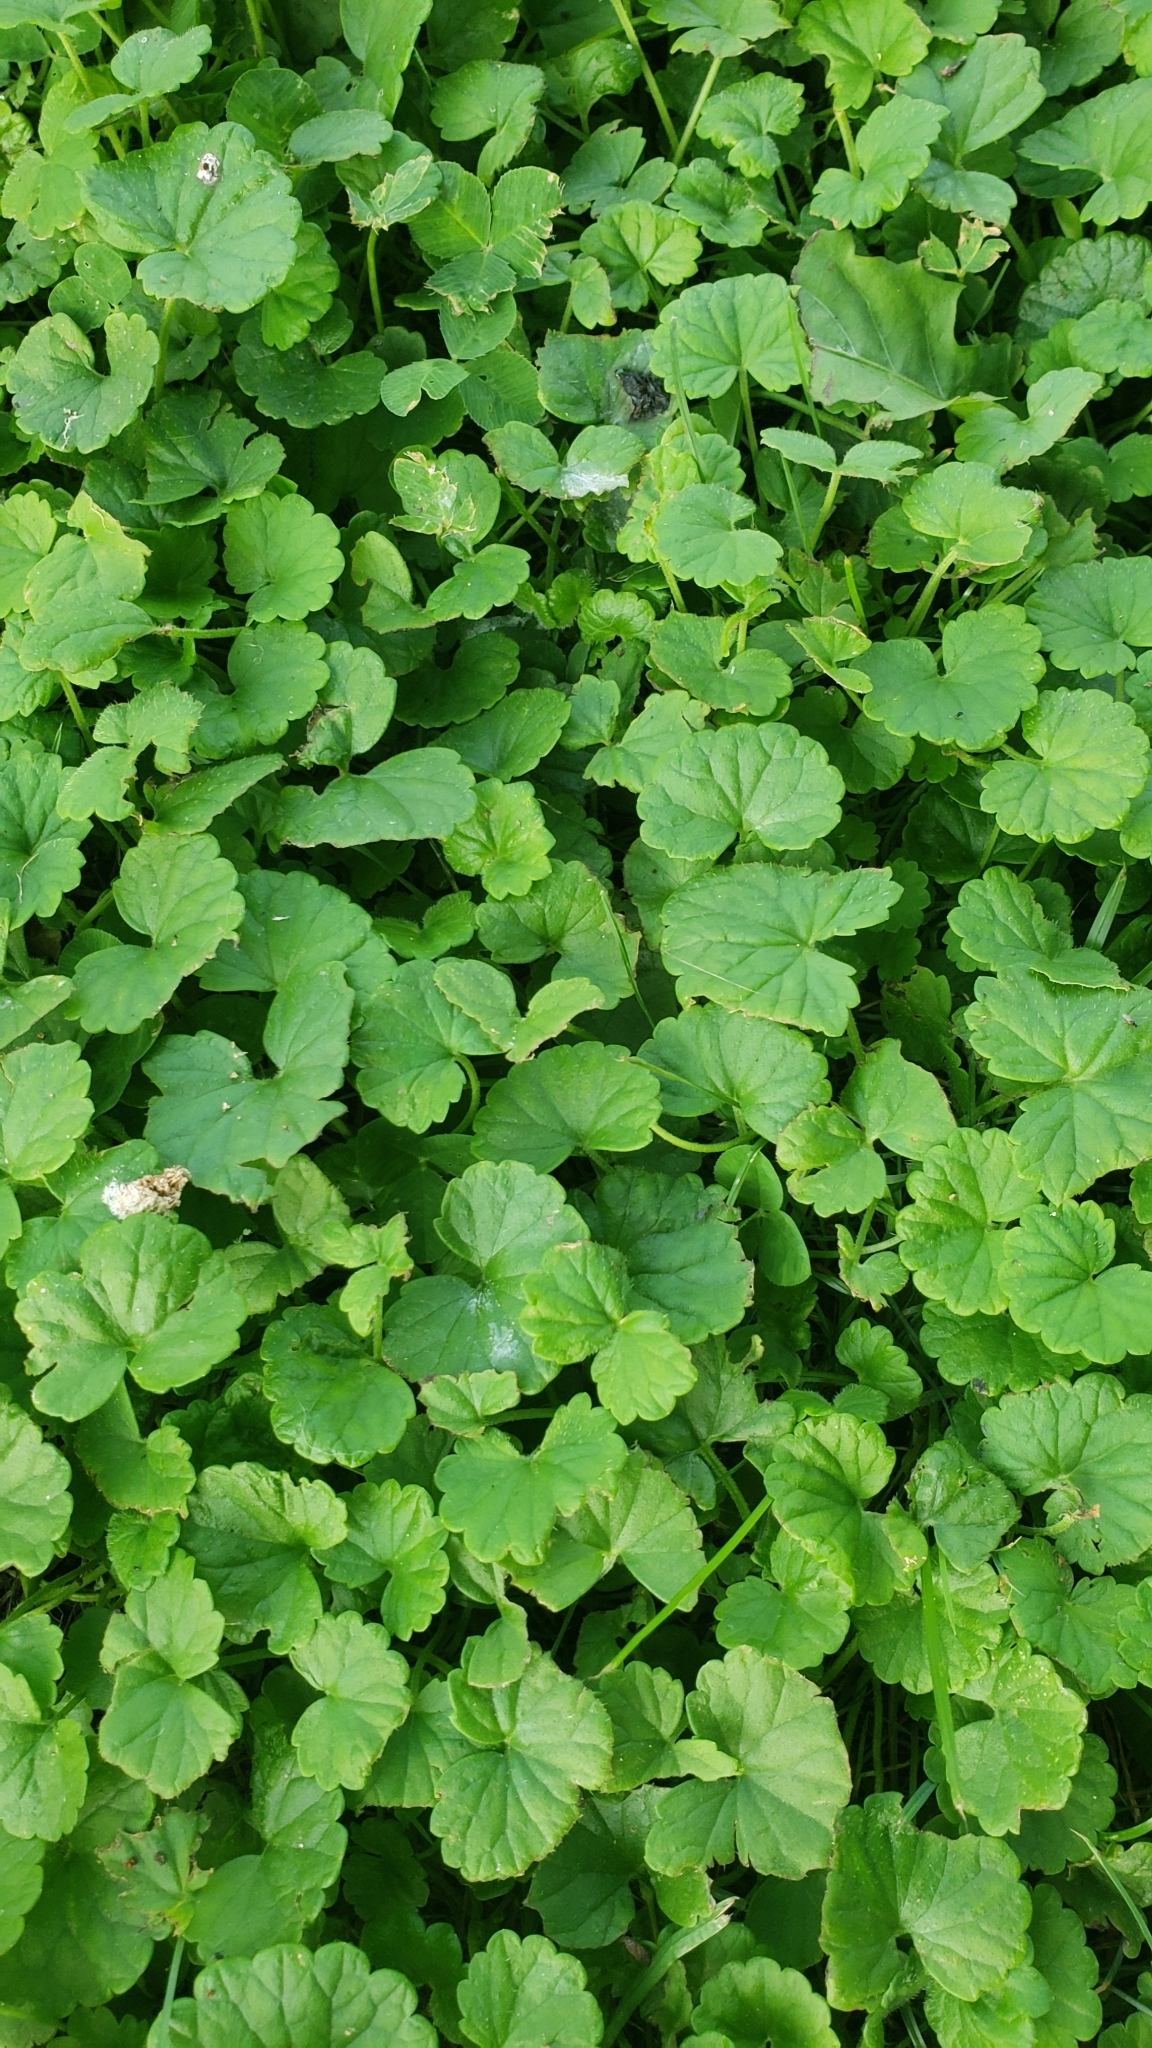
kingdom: Plantae
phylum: Tracheophyta
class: Magnoliopsida
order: Lamiales
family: Lamiaceae
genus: Glechoma
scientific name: Glechoma hederacea
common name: Ground ivy
